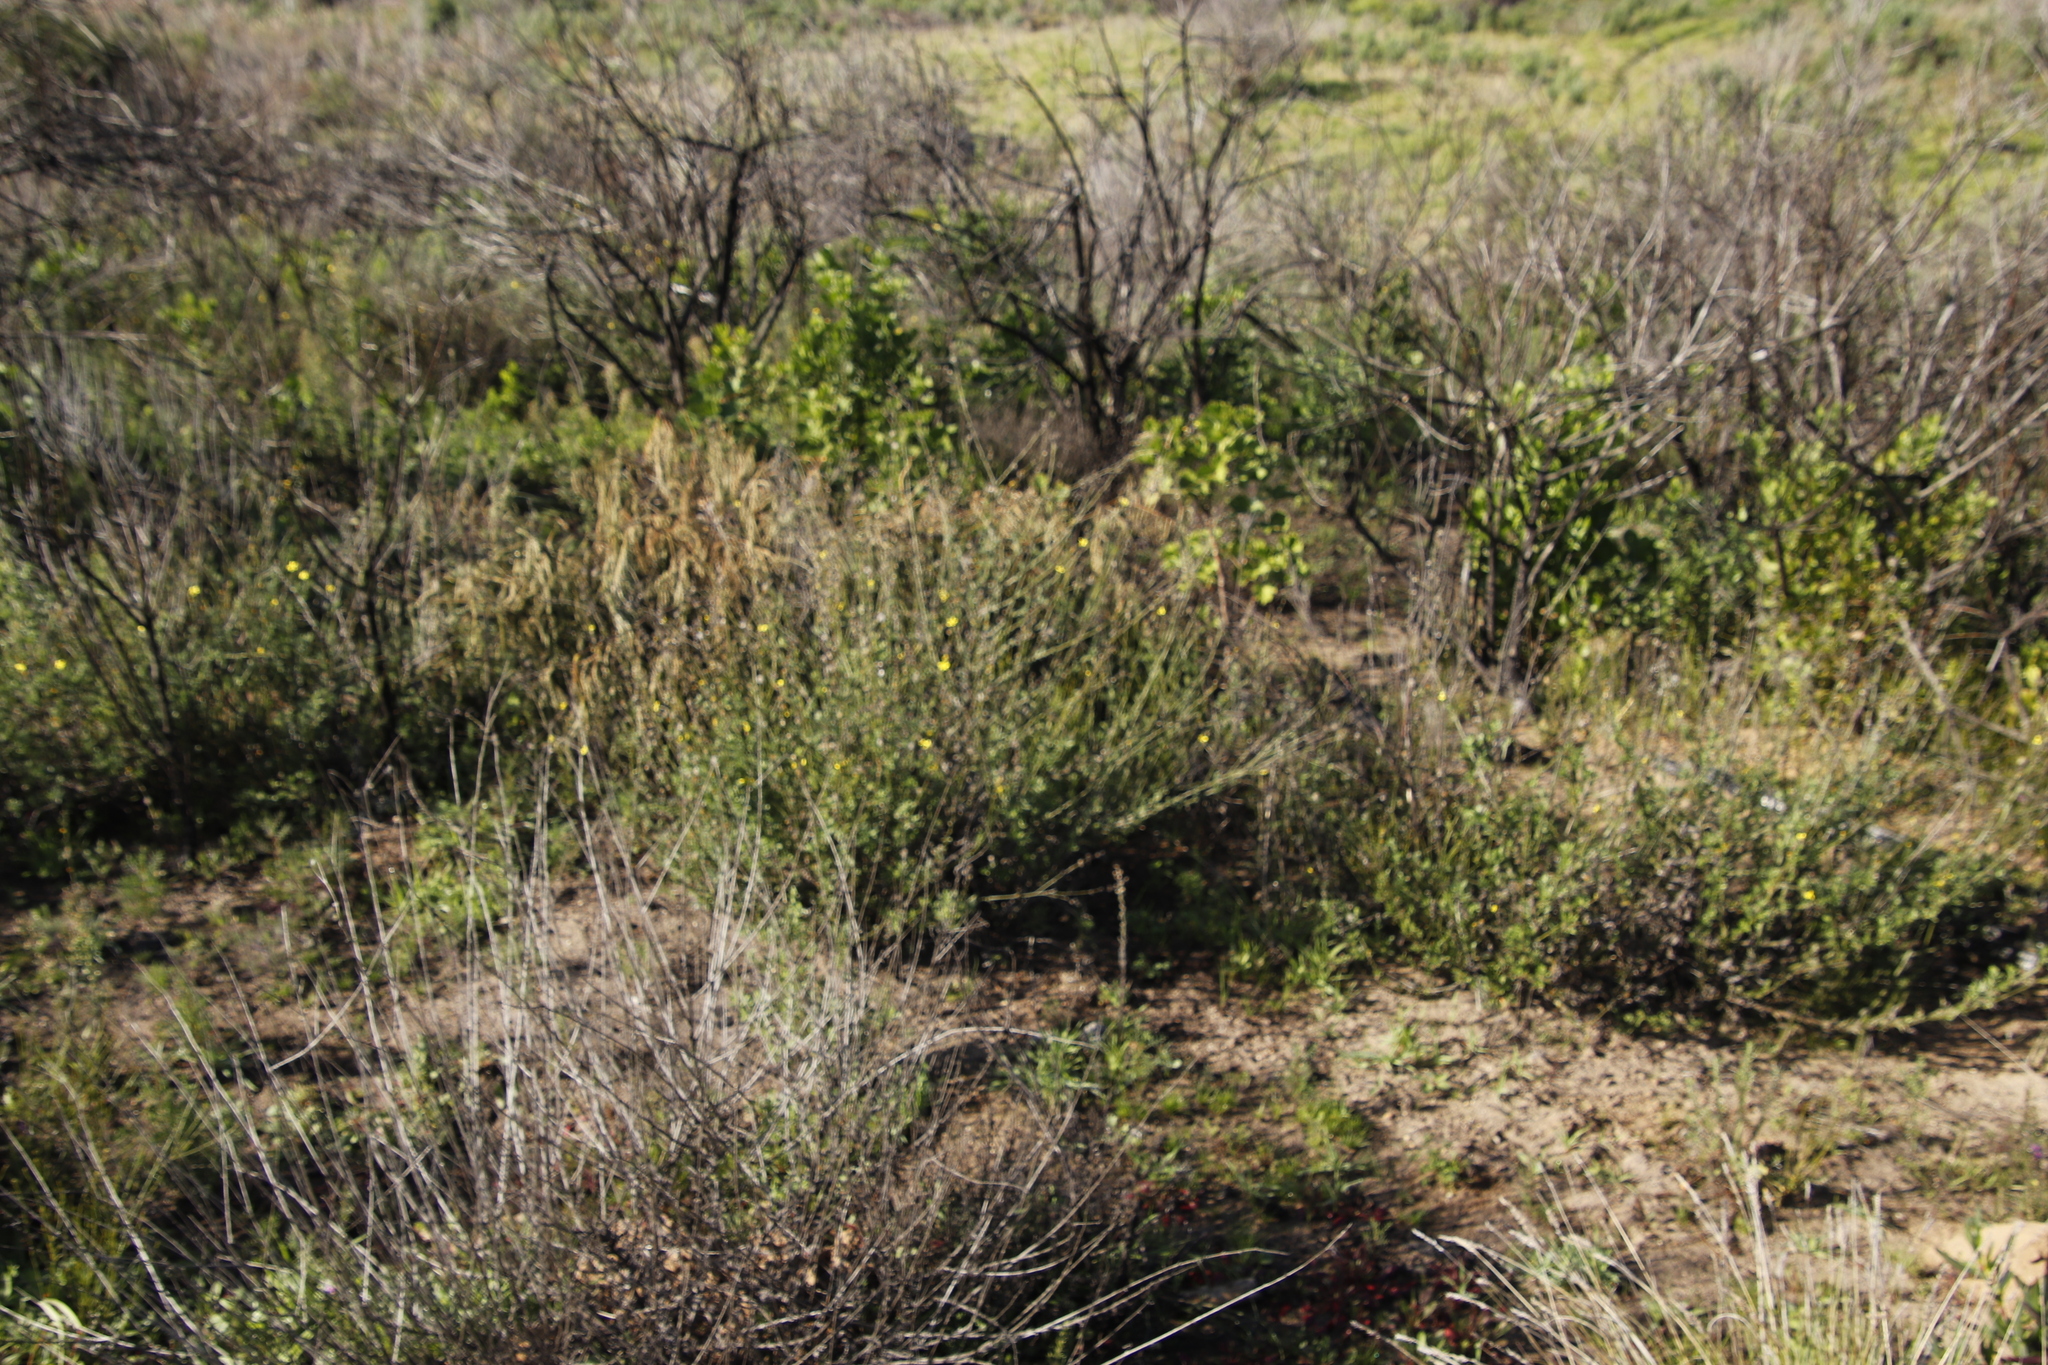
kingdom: Plantae
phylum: Tracheophyta
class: Magnoliopsida
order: Asterales
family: Asteraceae
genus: Senecio
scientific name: Senecio pubigerus
